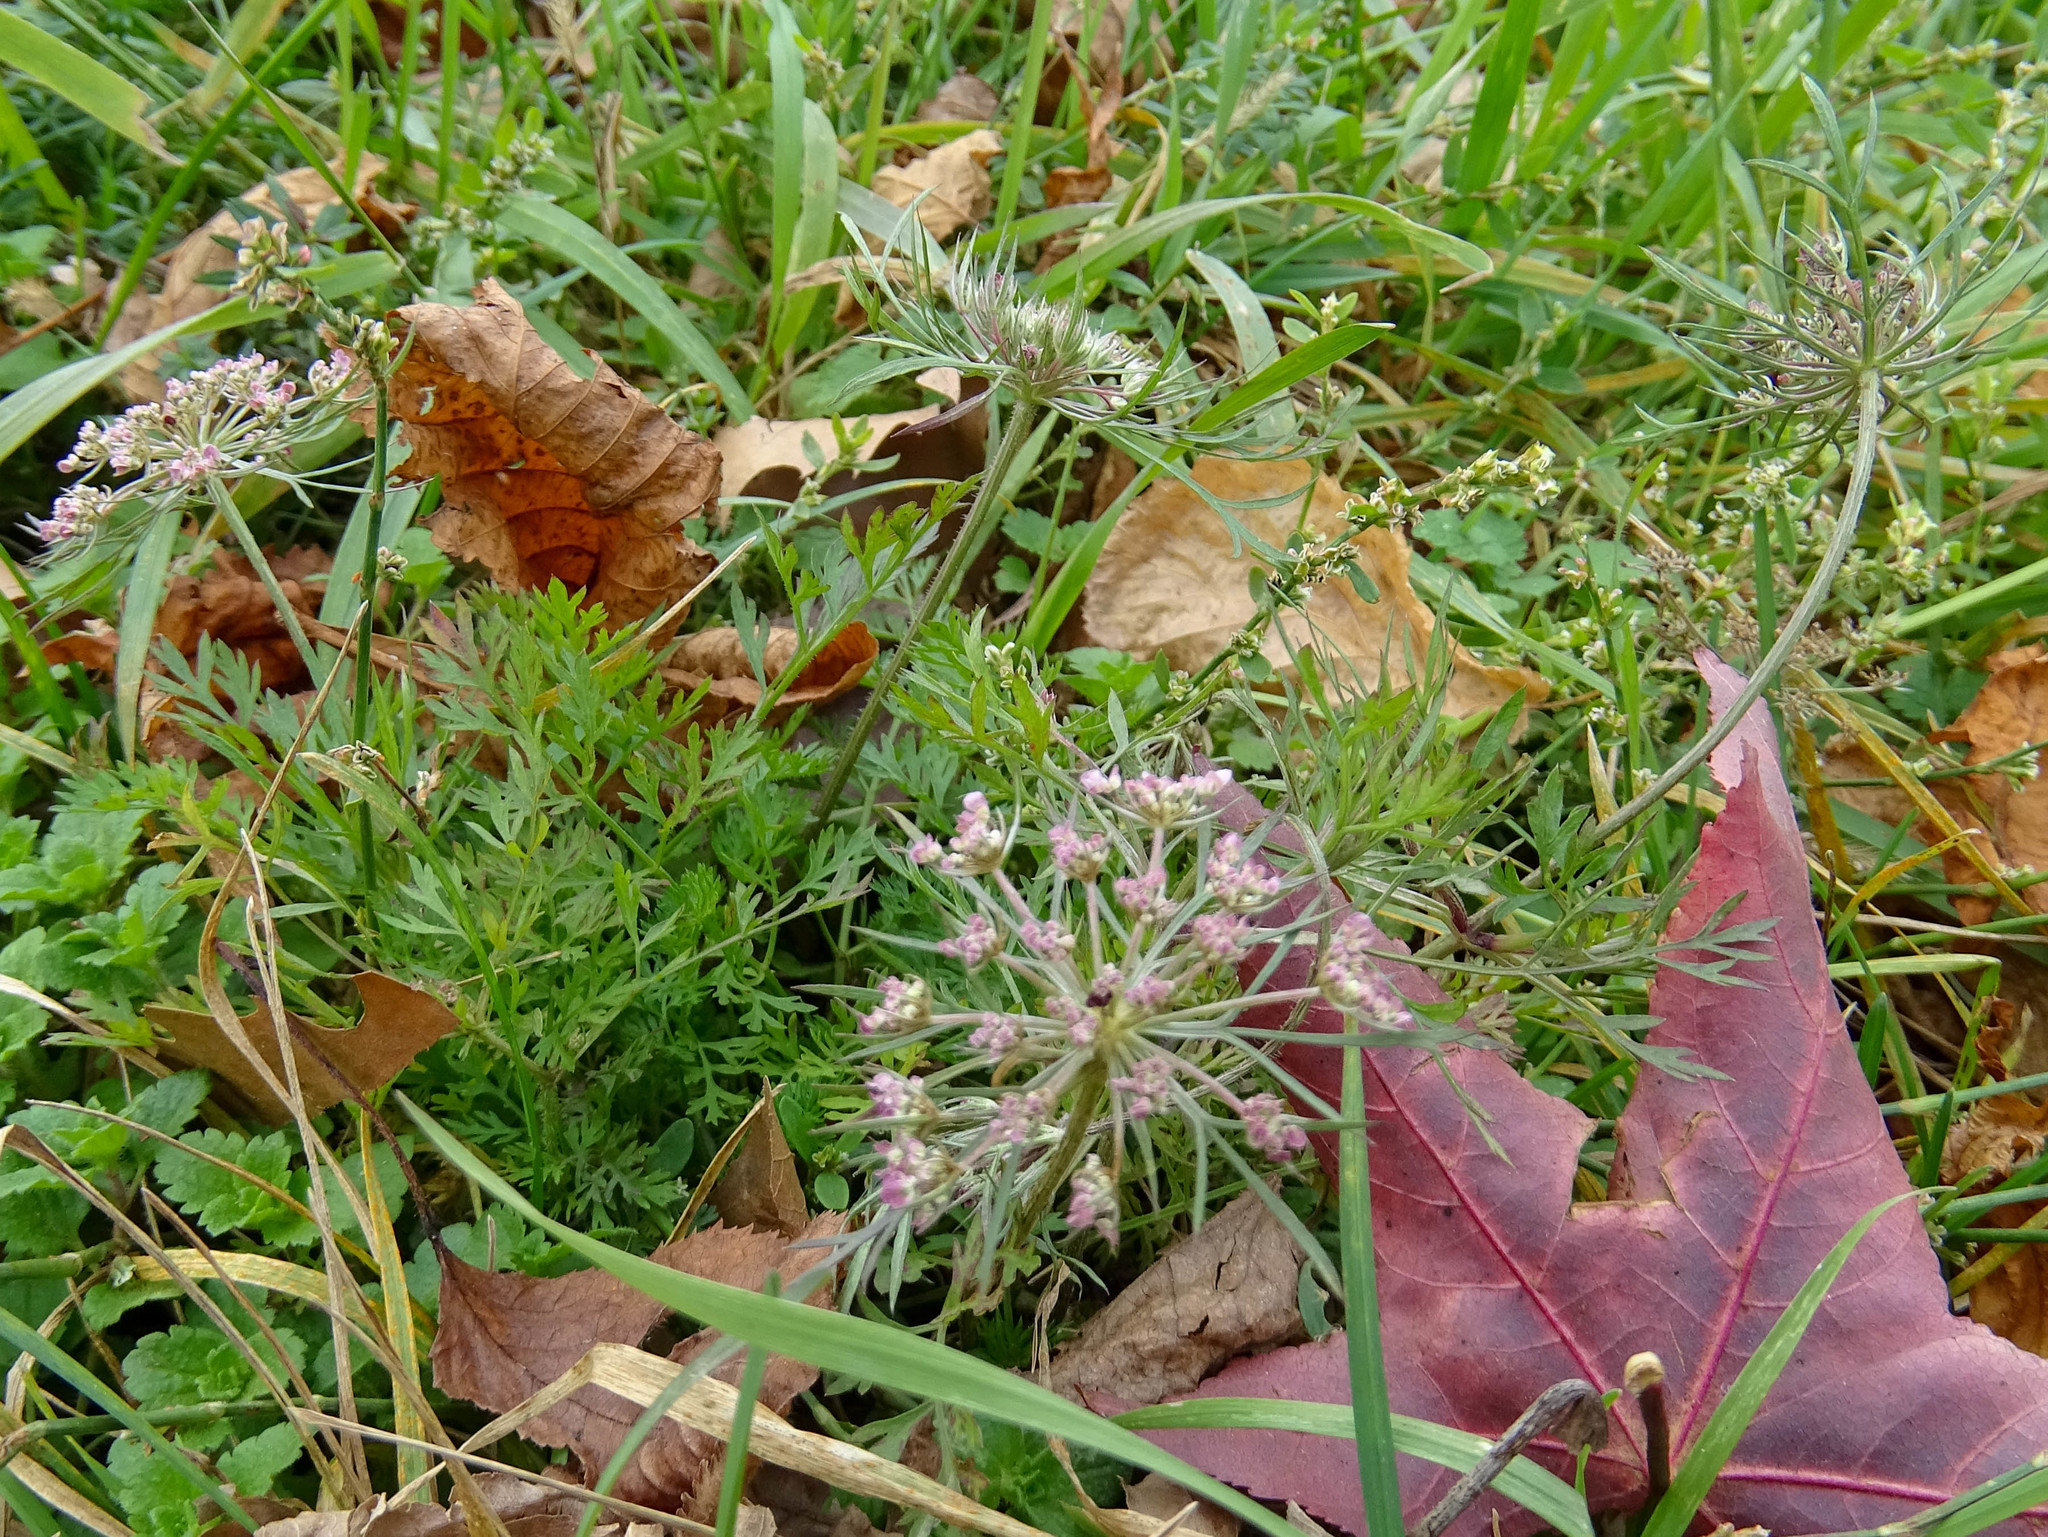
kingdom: Plantae
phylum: Tracheophyta
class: Magnoliopsida
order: Apiales
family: Apiaceae
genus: Daucus
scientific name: Daucus carota
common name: Wild carrot
